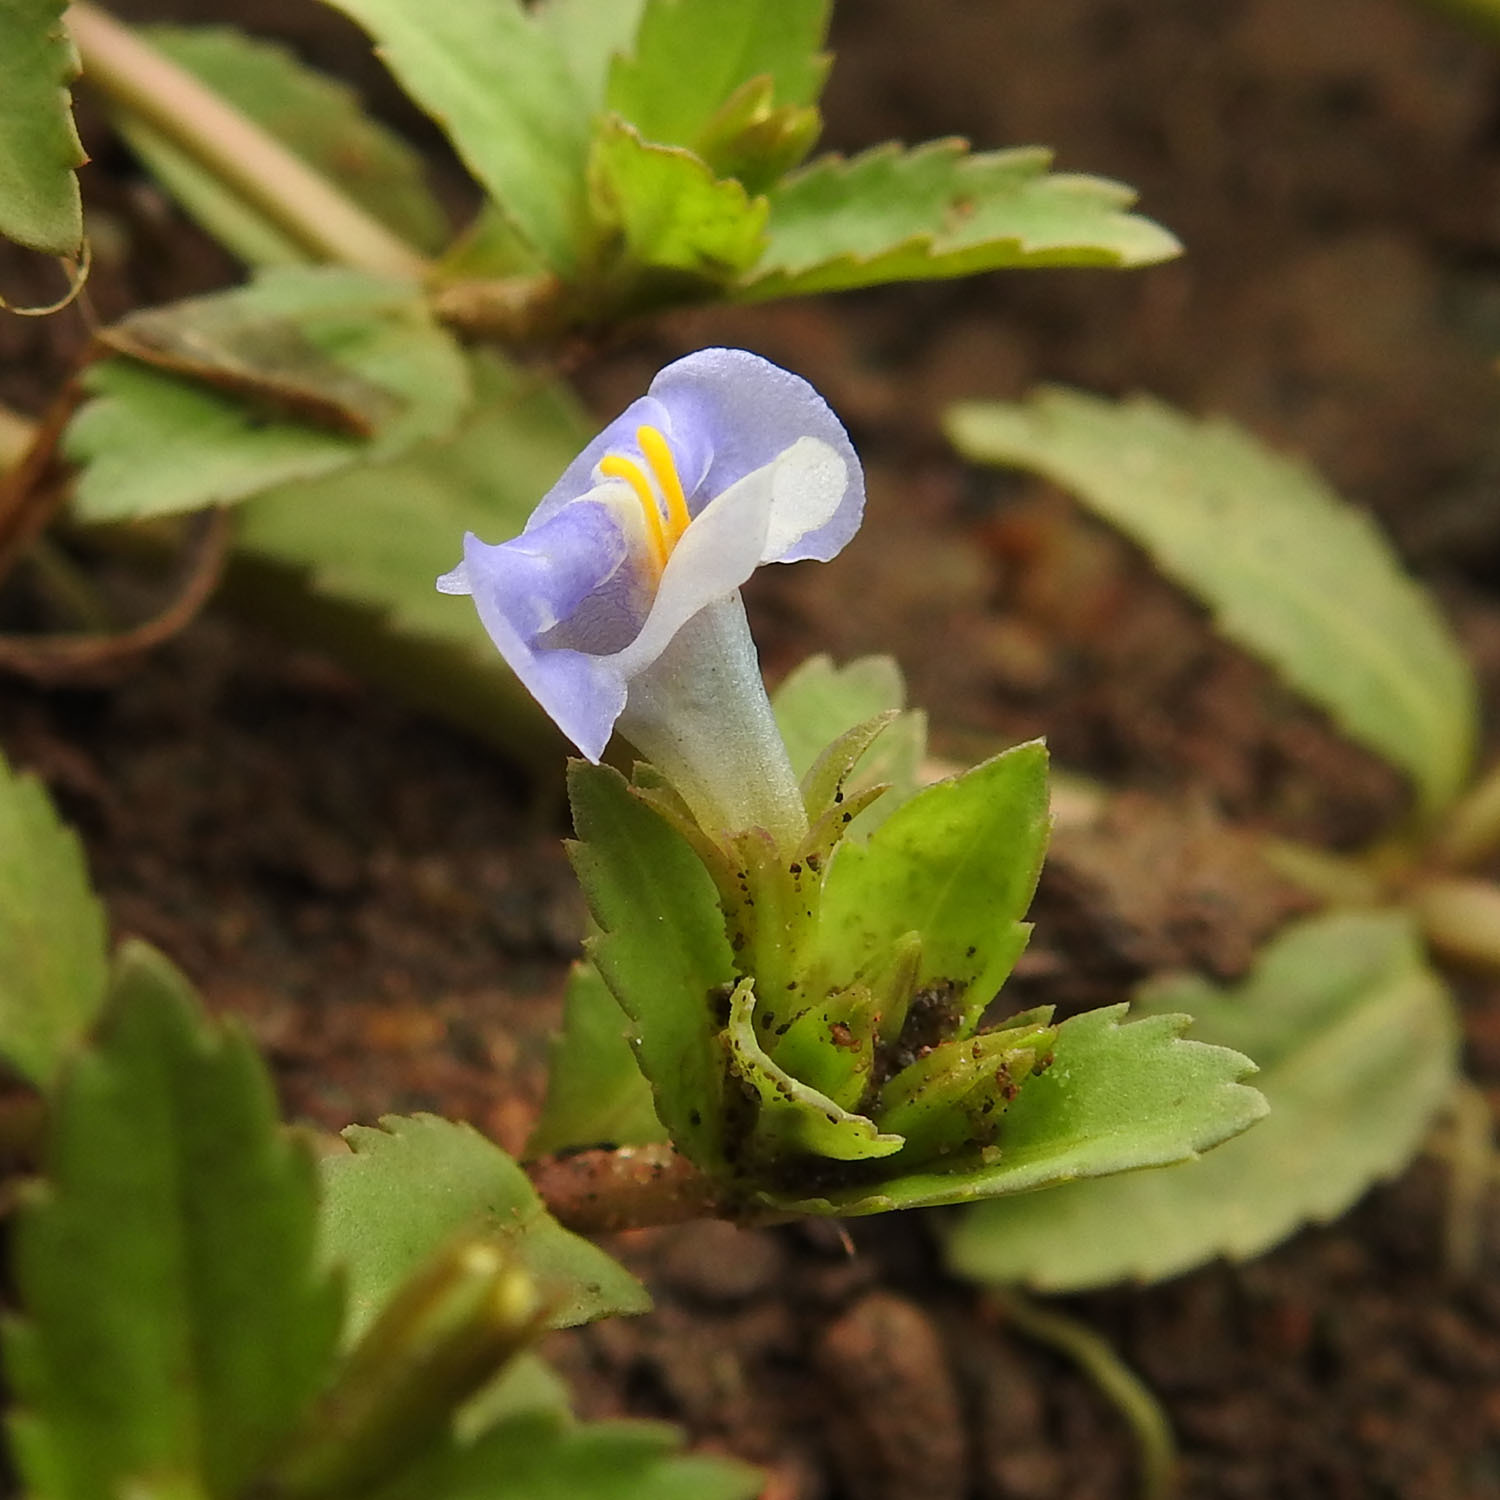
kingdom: Plantae
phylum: Tracheophyta
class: Magnoliopsida
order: Lamiales
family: Linderniaceae
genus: Bonnaya
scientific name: Bonnaya antipoda
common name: Sparrow false pimpernel
